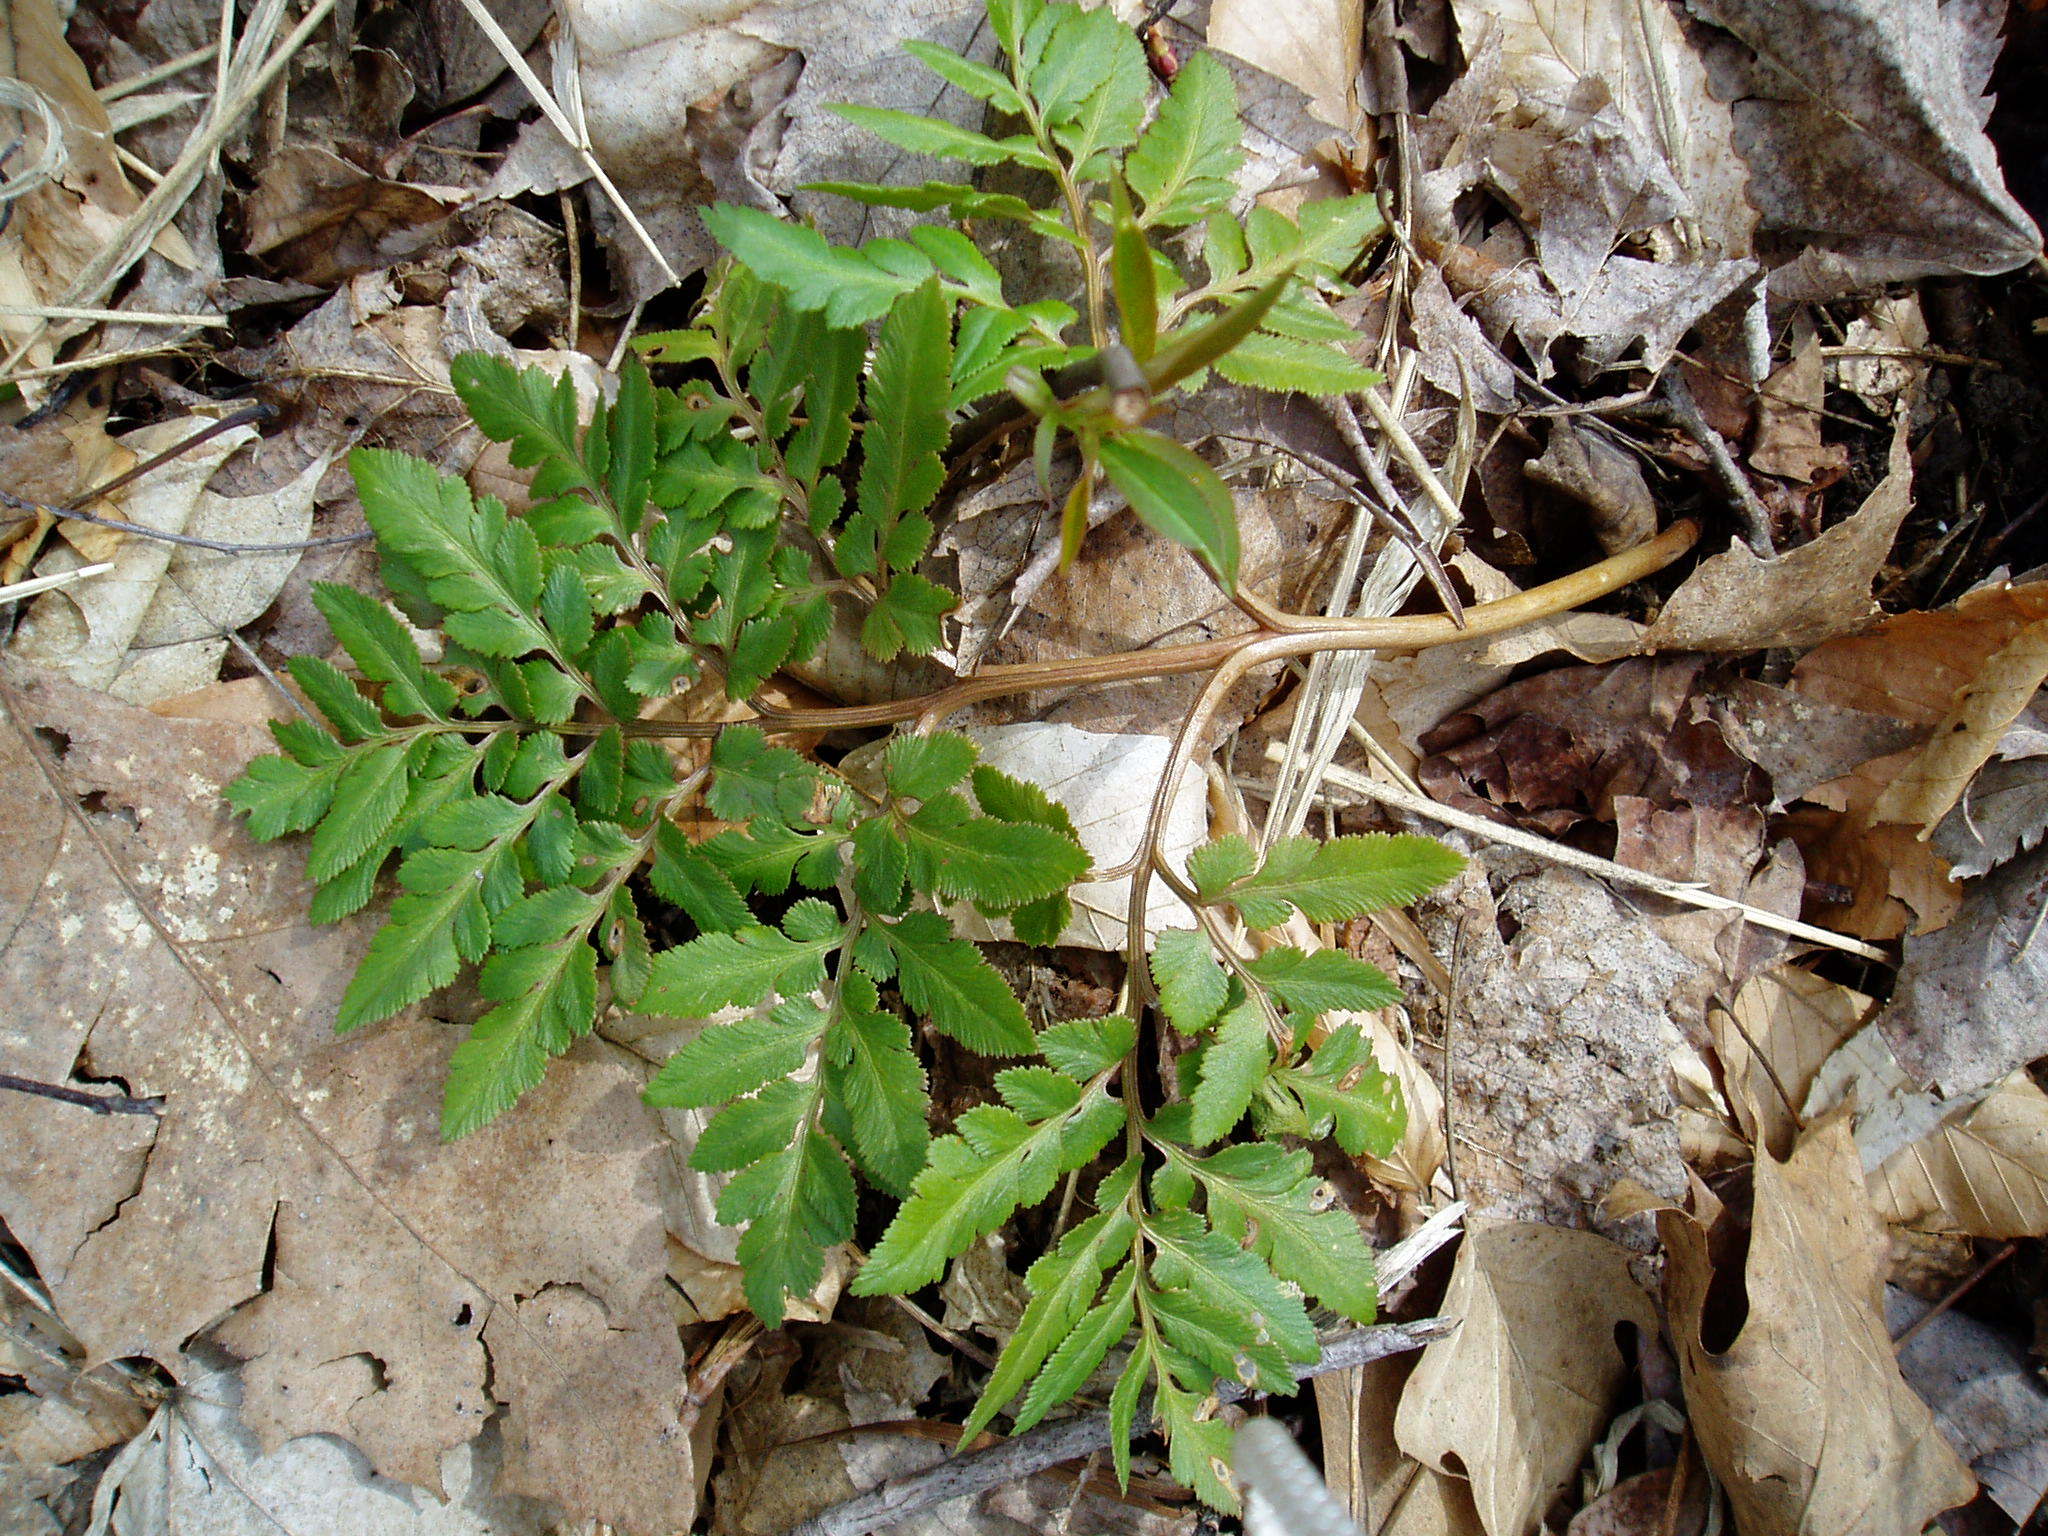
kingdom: Plantae
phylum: Tracheophyta
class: Polypodiopsida
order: Ophioglossales
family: Ophioglossaceae
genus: Sceptridium
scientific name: Sceptridium dissectum
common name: Cut-leaved grapefern
